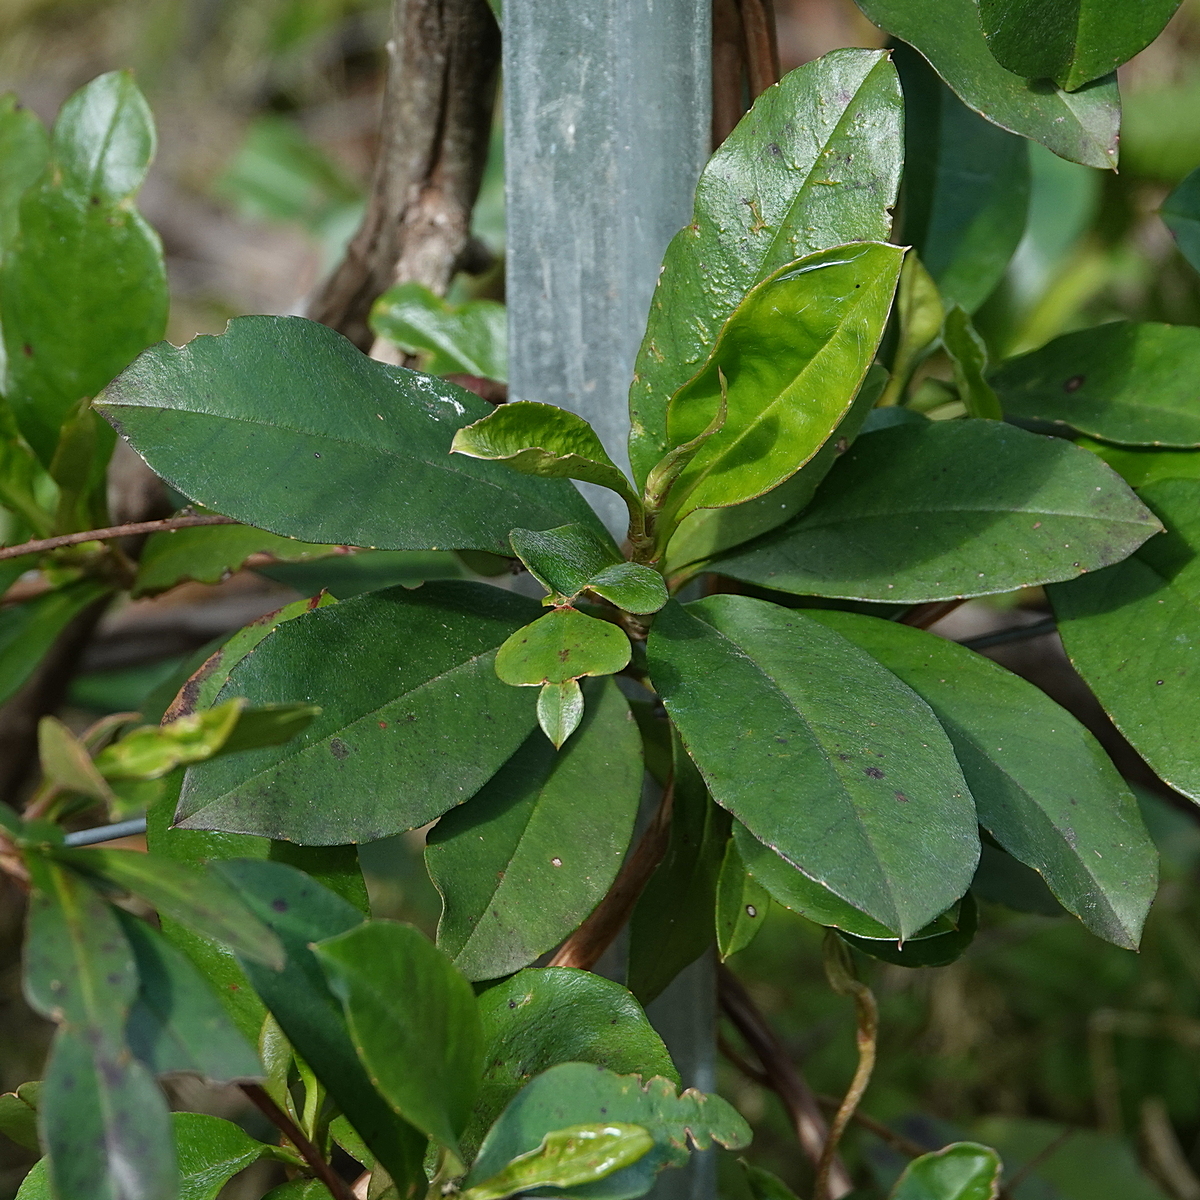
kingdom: Plantae
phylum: Tracheophyta
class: Magnoliopsida
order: Dilleniales
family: Dilleniaceae
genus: Hibbertia
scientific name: Hibbertia scandens
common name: Climbing guinea-flower
